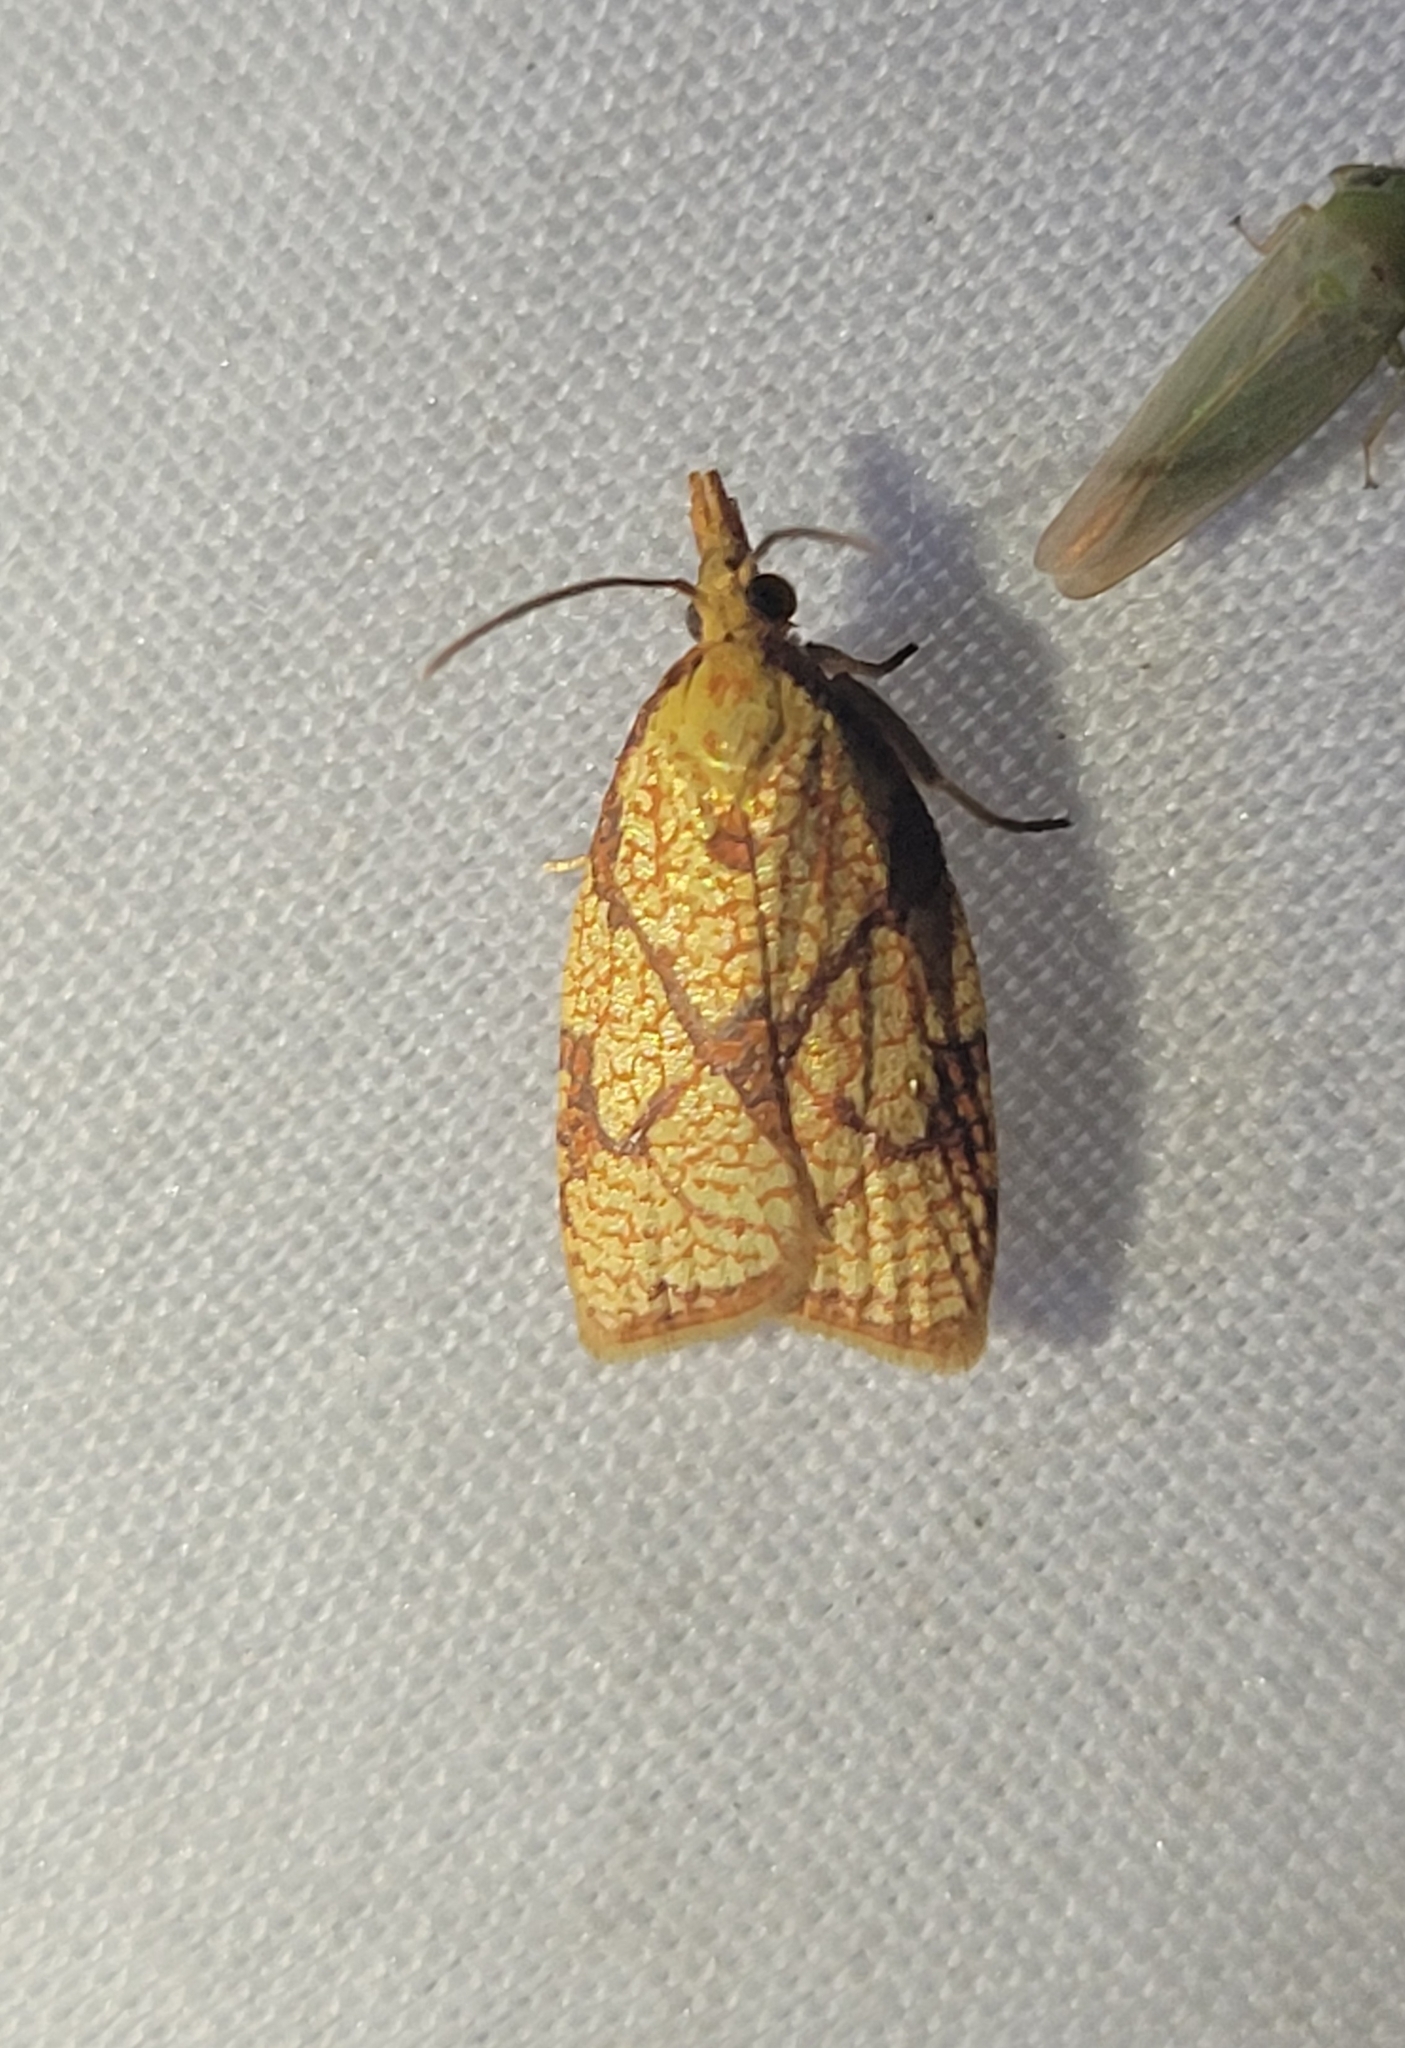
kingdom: Animalia
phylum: Arthropoda
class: Insecta
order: Lepidoptera
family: Tortricidae
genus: Cenopis
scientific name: Cenopis reticulatana
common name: Reticulated fruitworm moth
